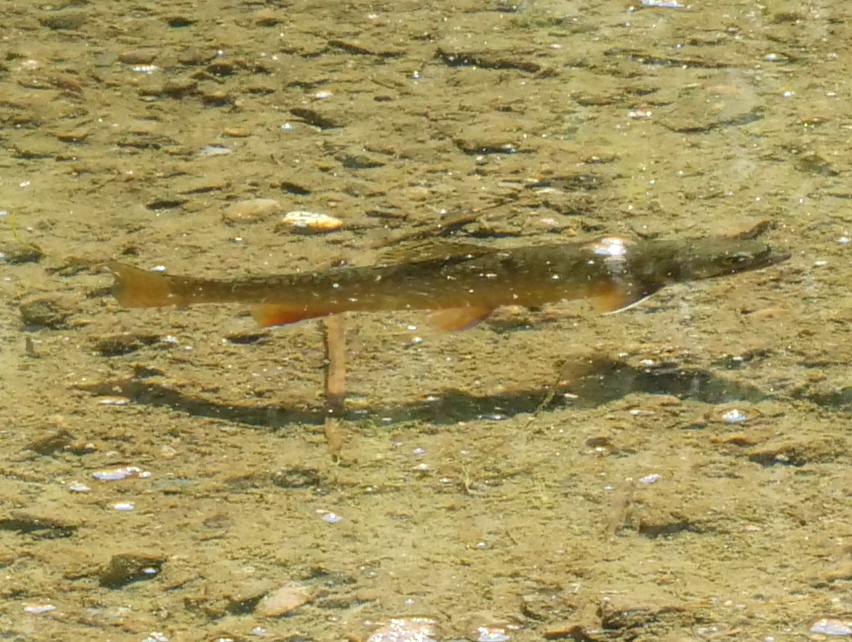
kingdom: Animalia
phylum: Chordata
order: Salmoniformes
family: Salmonidae
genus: Salvelinus
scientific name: Salvelinus fontinalis
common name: Brook trout
